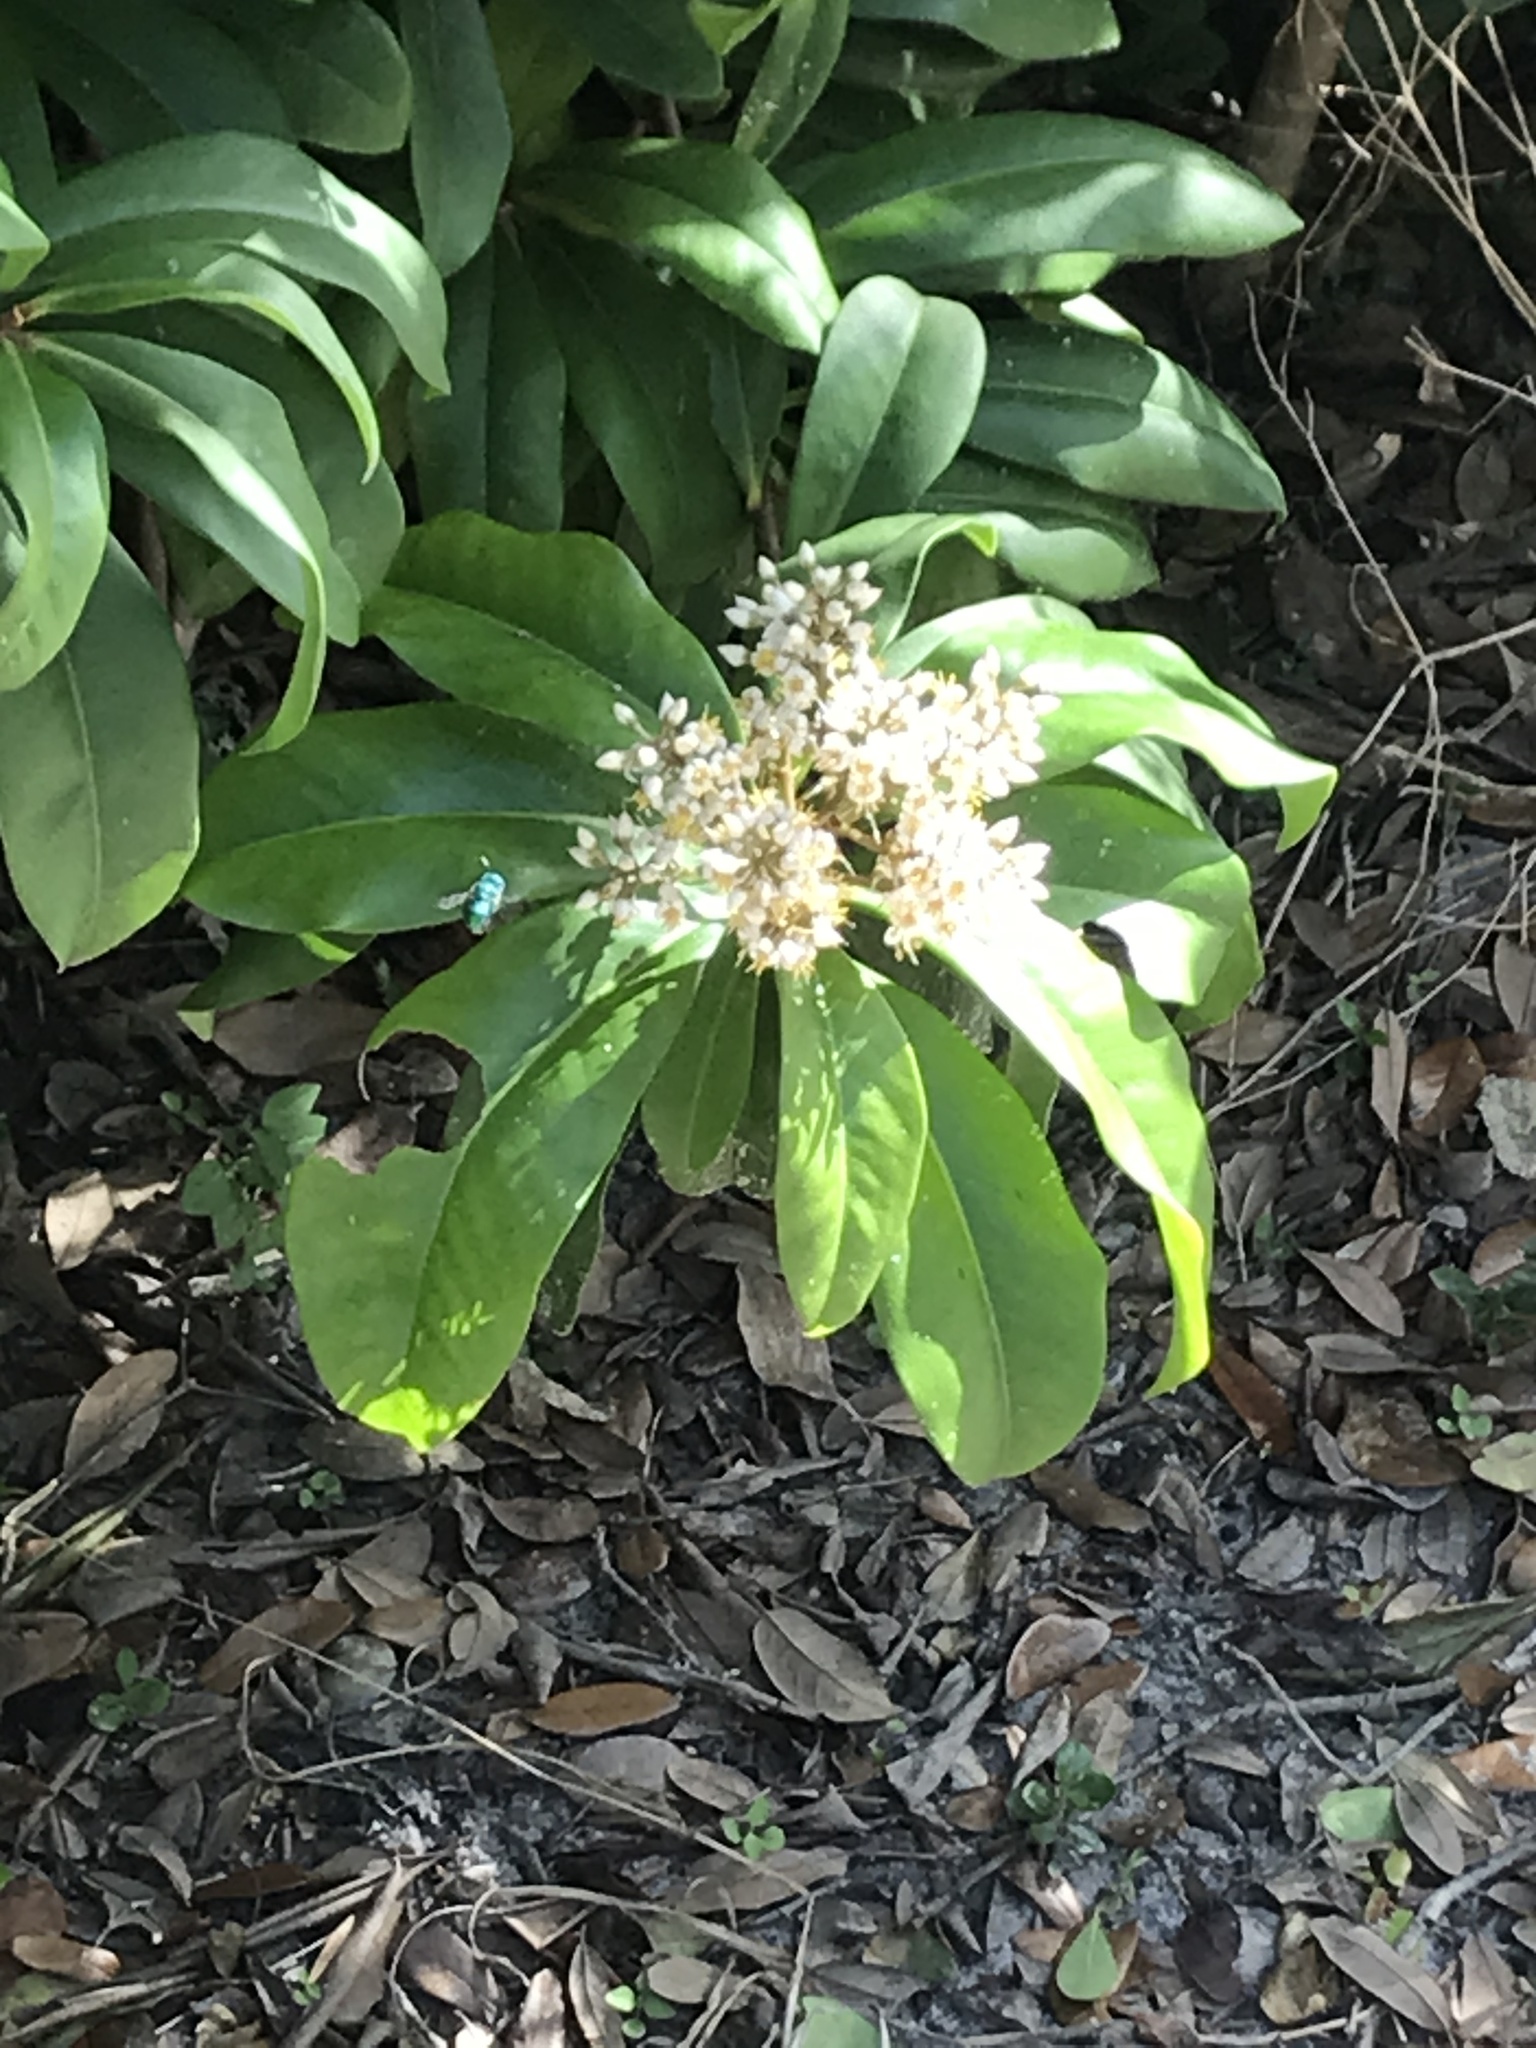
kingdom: Plantae
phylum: Tracheophyta
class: Magnoliopsida
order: Ericales
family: Primulaceae
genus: Ardisia
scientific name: Ardisia escallonioides
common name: Island marlberry
